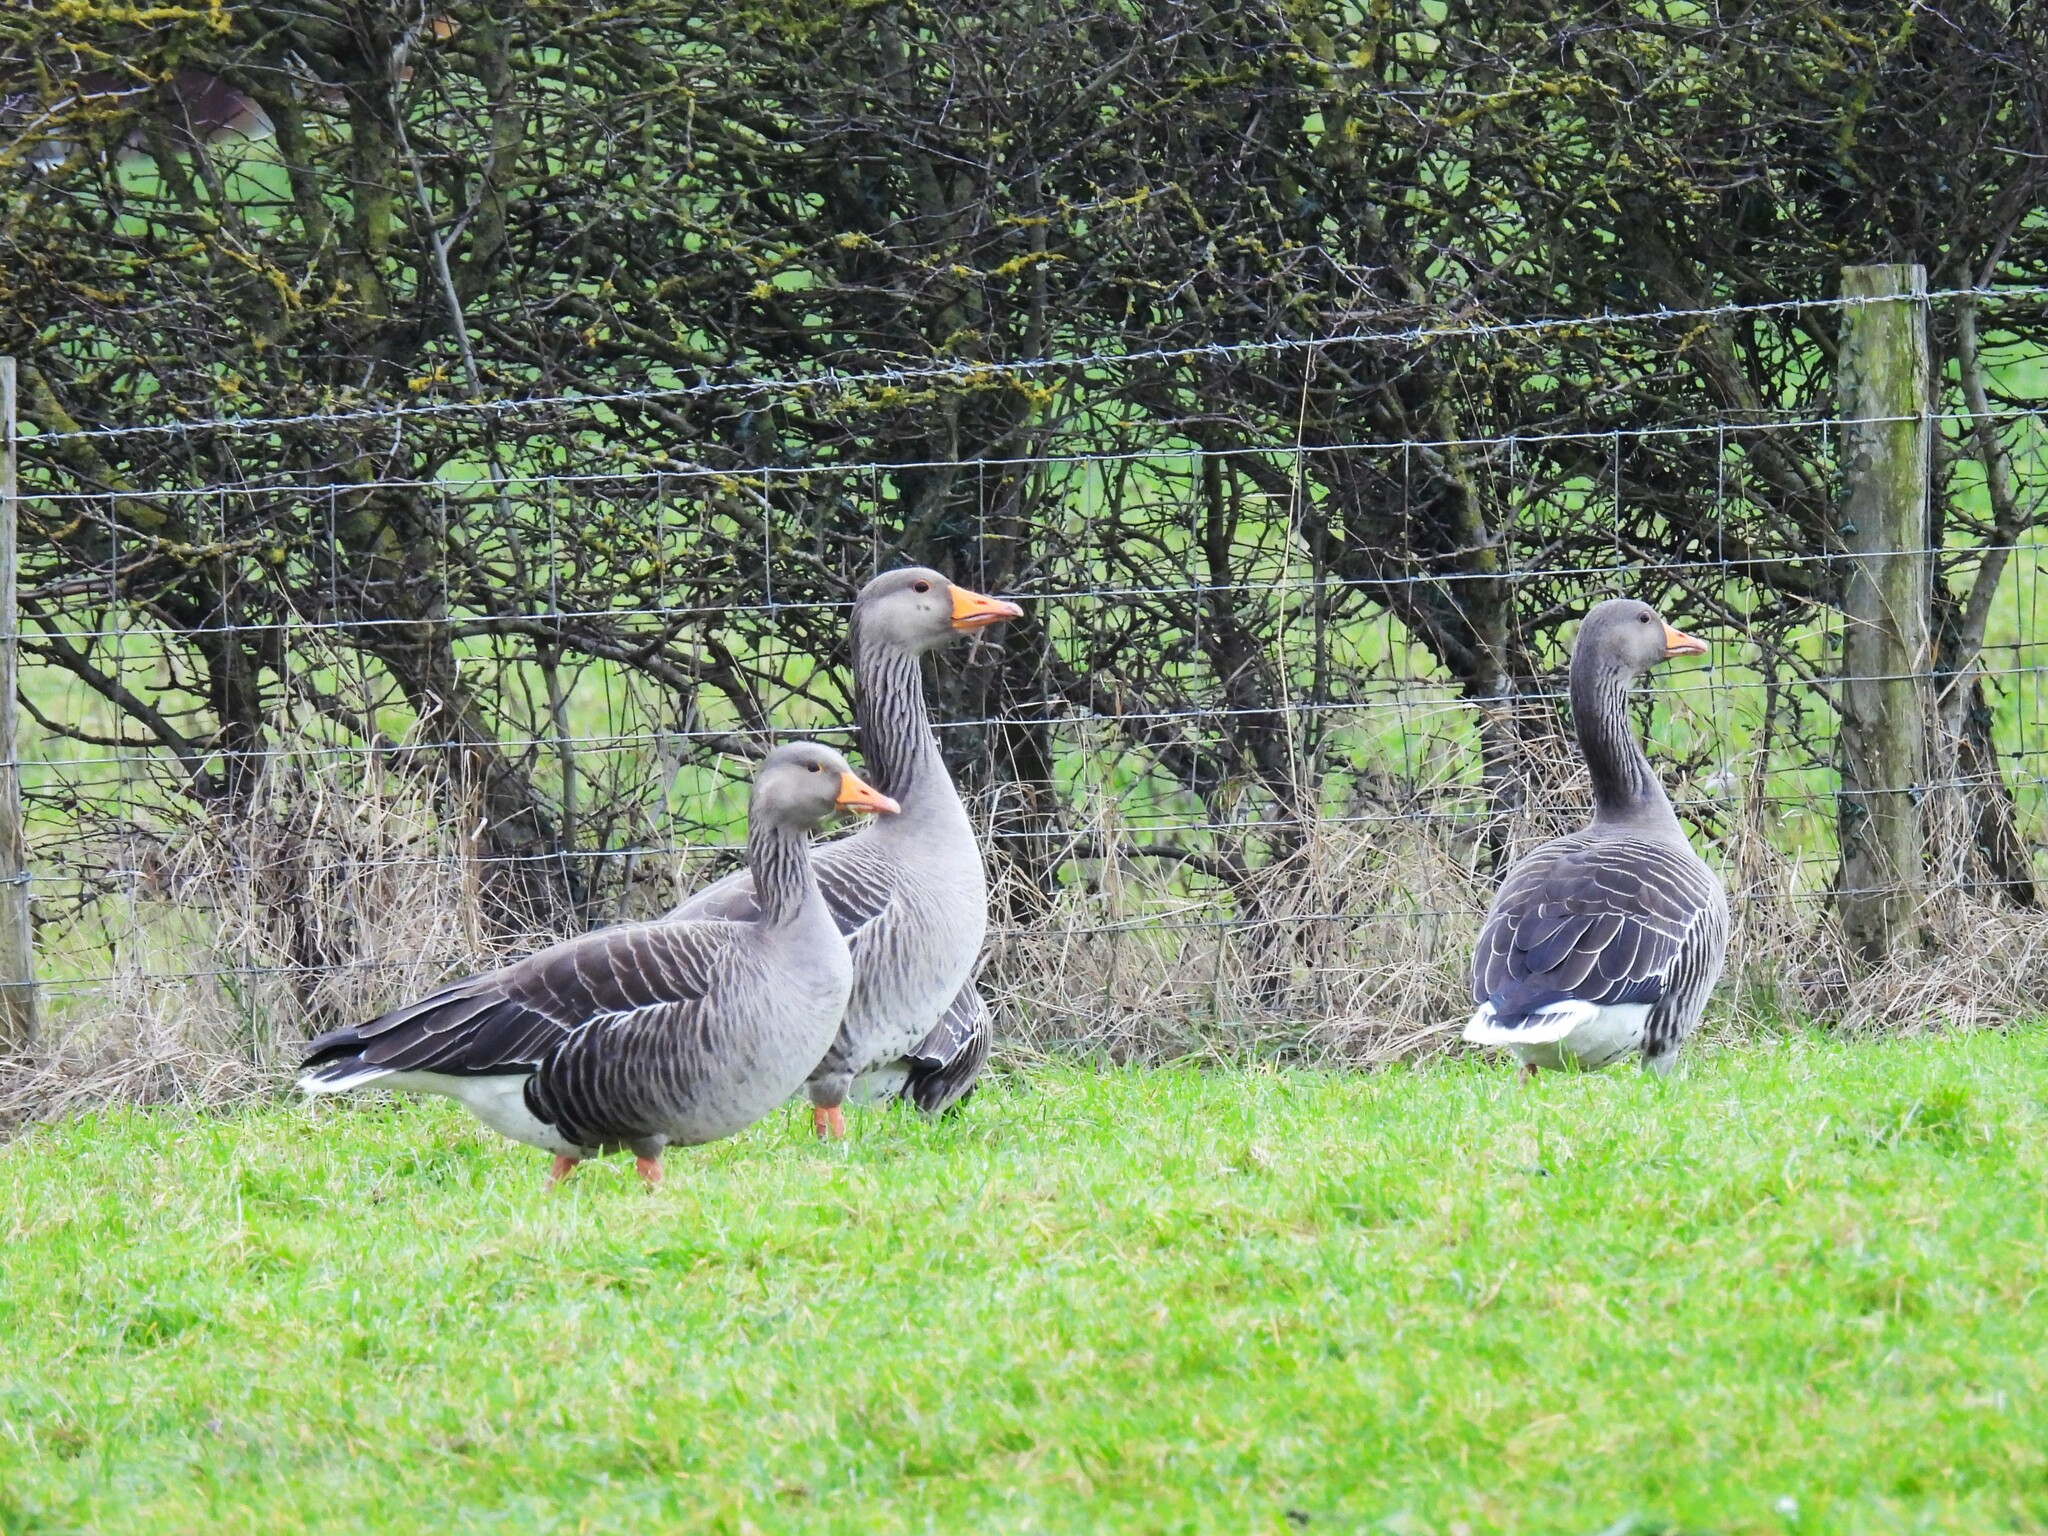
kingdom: Animalia
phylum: Chordata
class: Aves
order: Anseriformes
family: Anatidae
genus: Anser
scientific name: Anser anser
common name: Greylag goose
